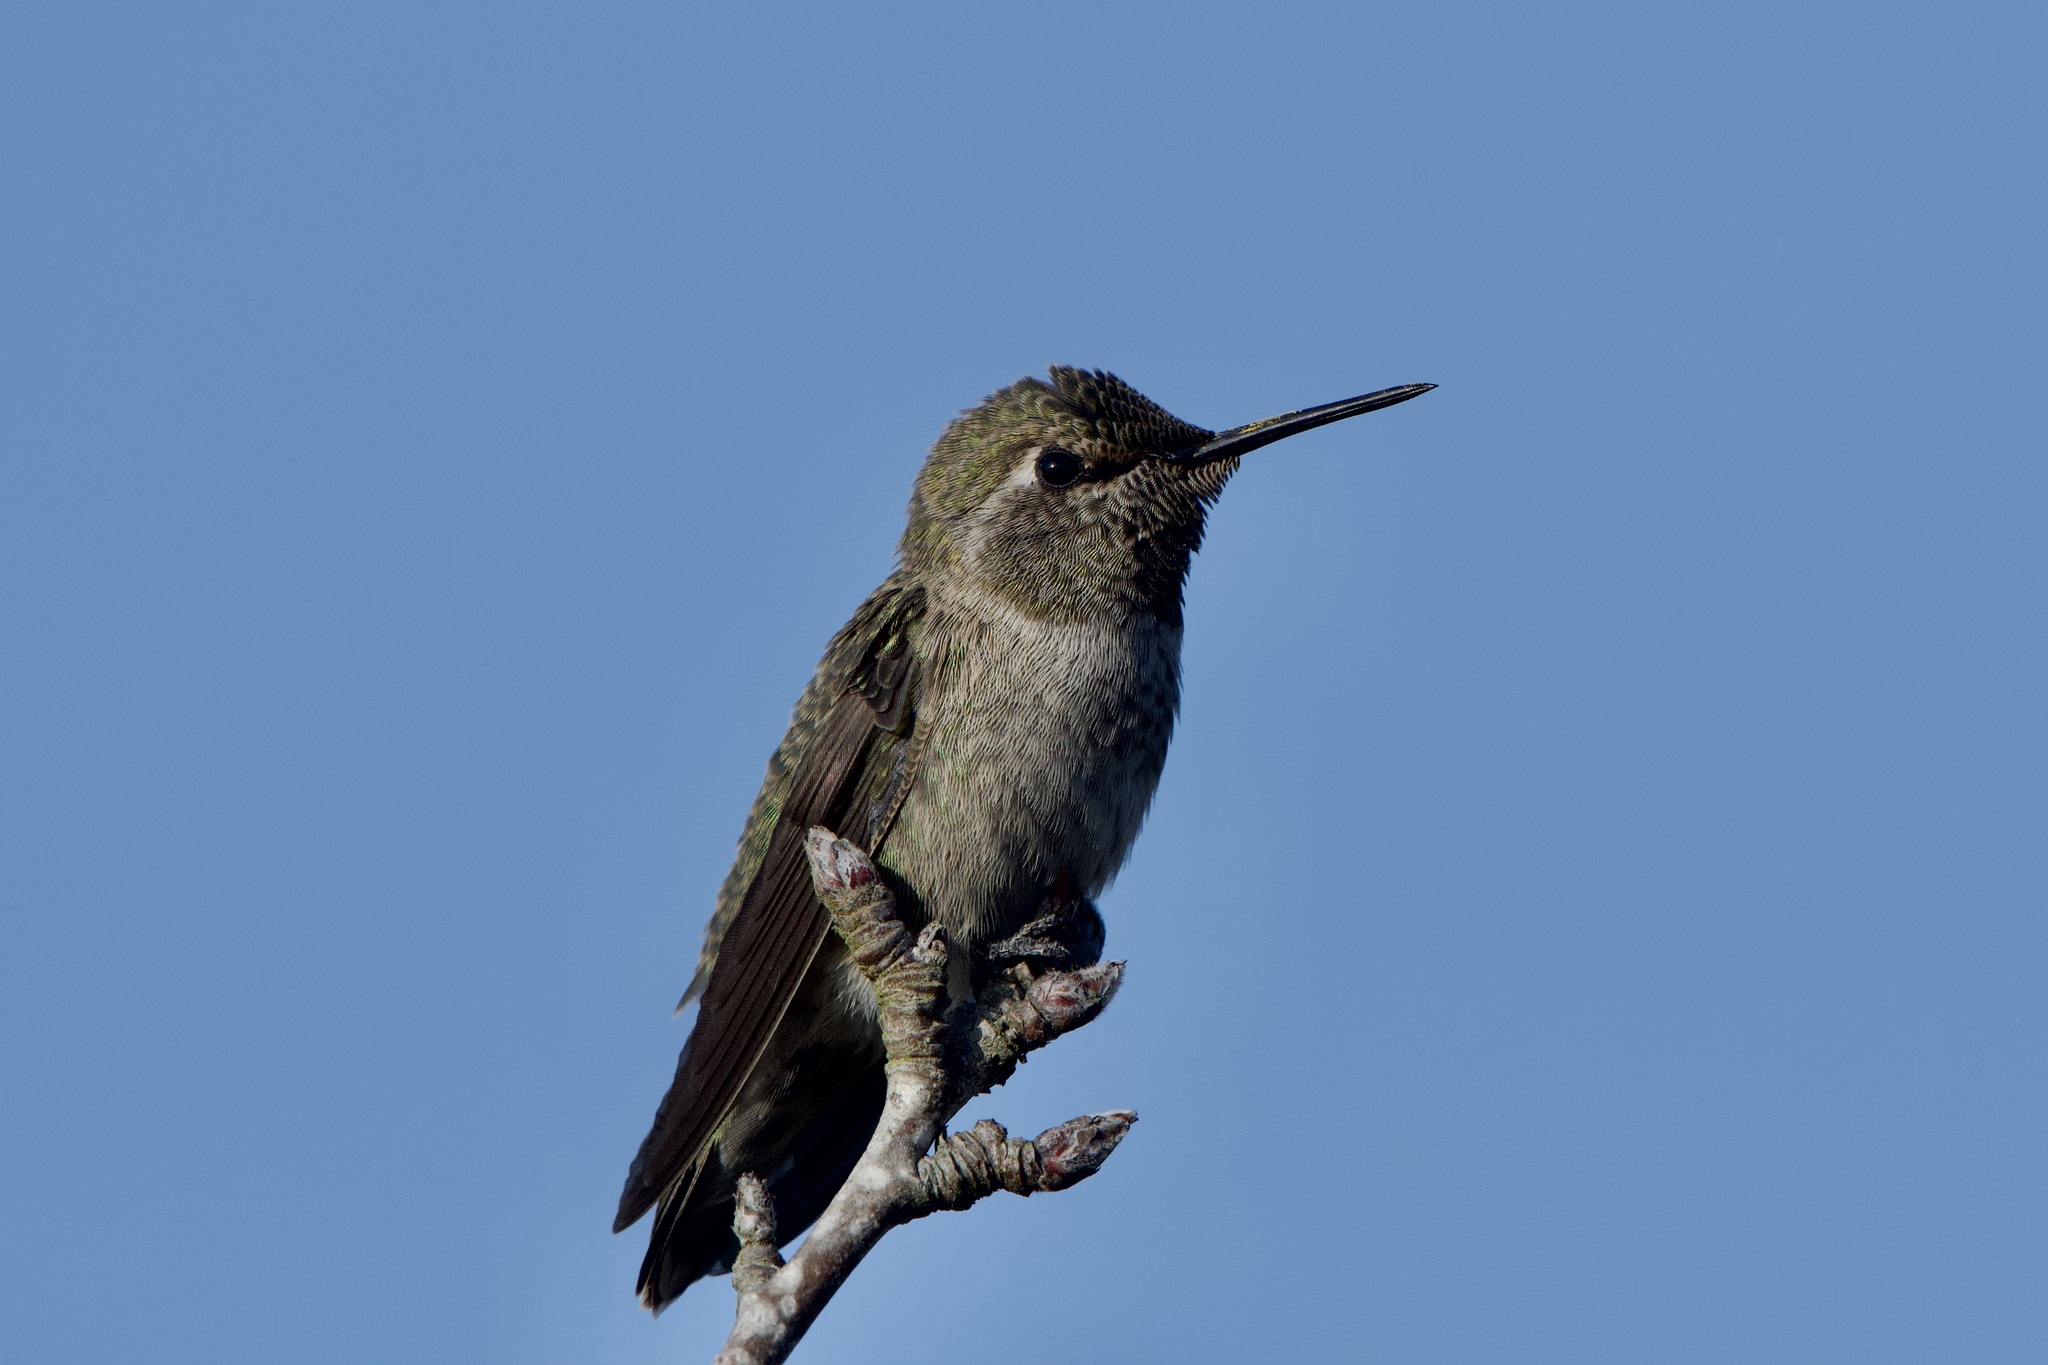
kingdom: Animalia
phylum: Chordata
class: Aves
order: Apodiformes
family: Trochilidae
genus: Calypte
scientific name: Calypte anna
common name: Anna's hummingbird
